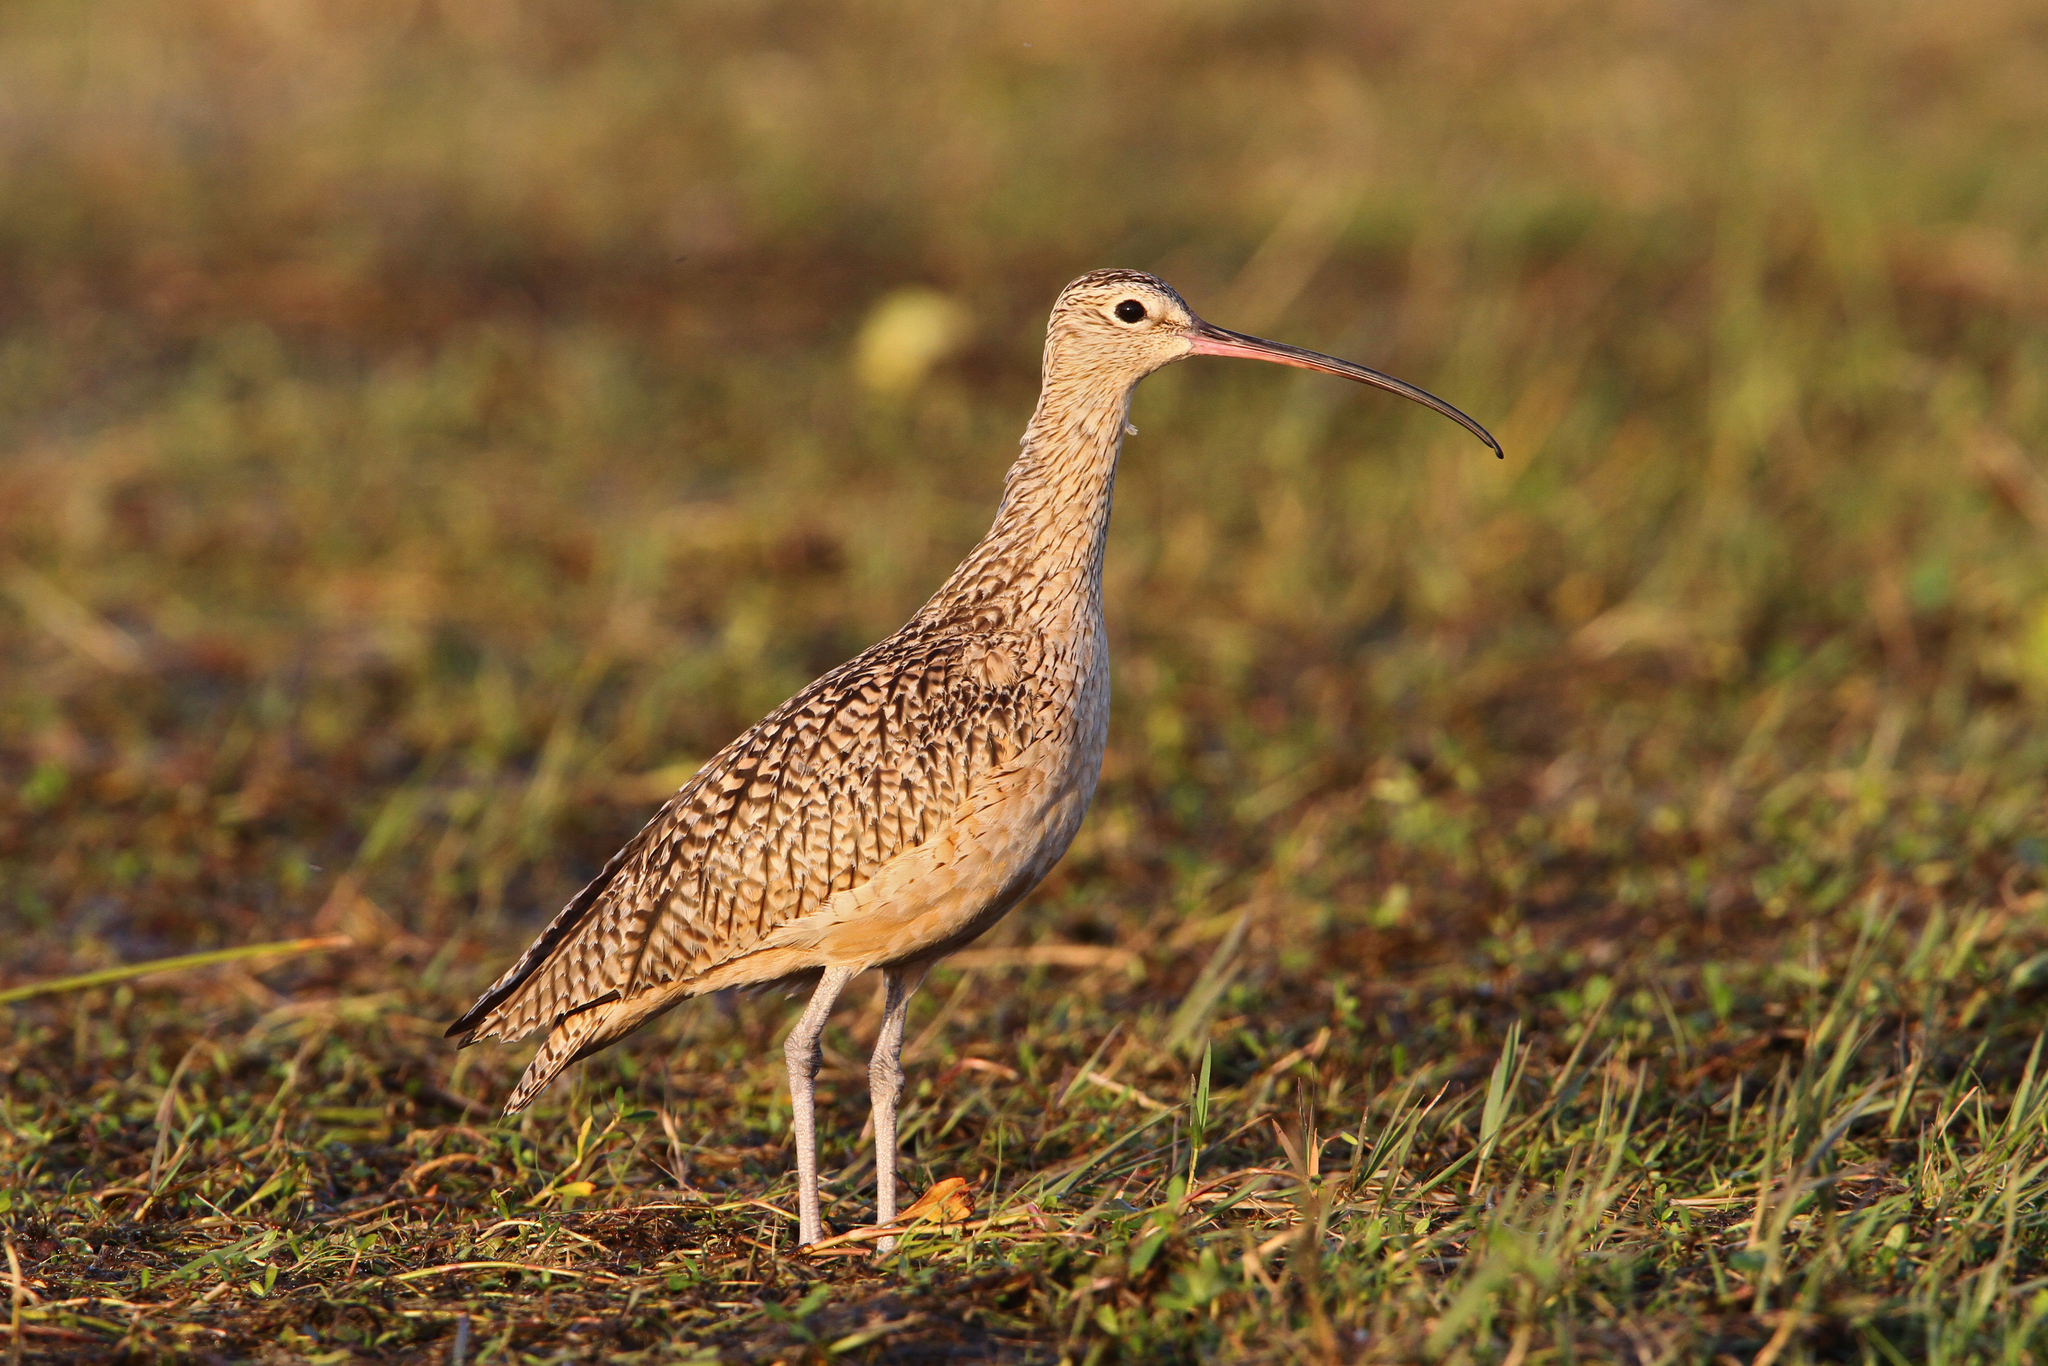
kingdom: Animalia
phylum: Chordata
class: Aves
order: Charadriiformes
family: Scolopacidae
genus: Numenius
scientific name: Numenius americanus
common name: Long-billed curlew
